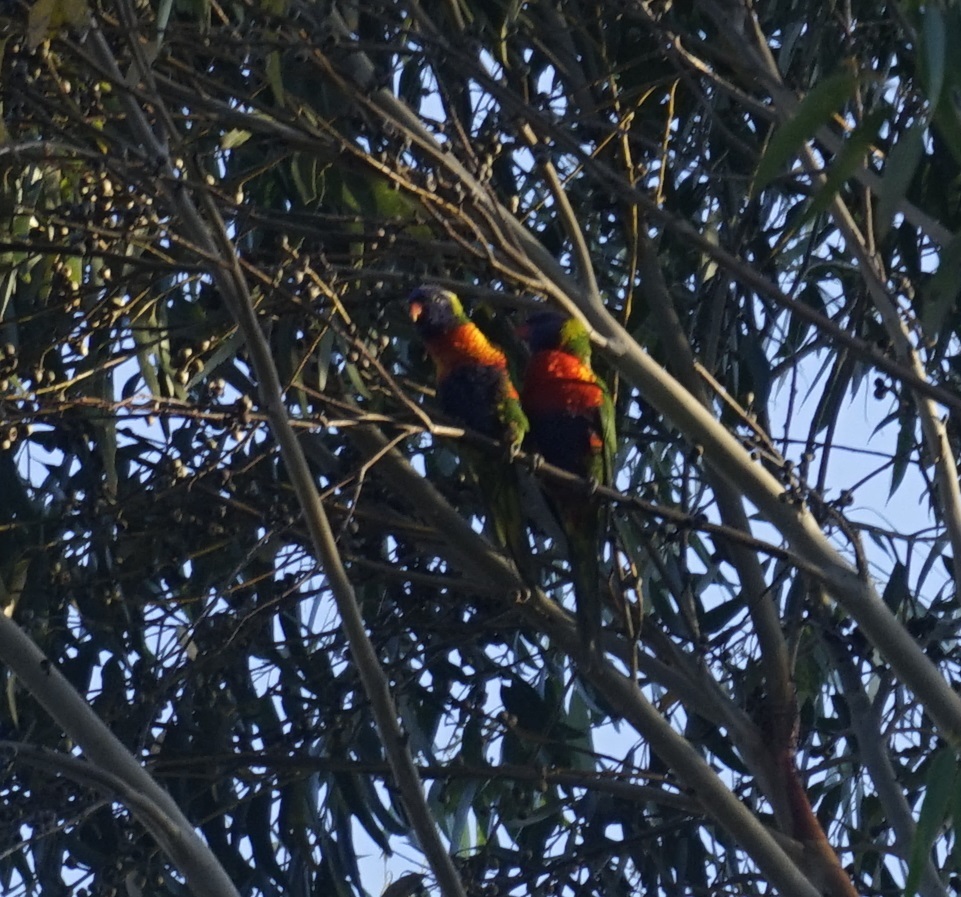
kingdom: Animalia
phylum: Chordata
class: Aves
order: Psittaciformes
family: Psittacidae
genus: Trichoglossus
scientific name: Trichoglossus haematodus
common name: Coconut lorikeet
